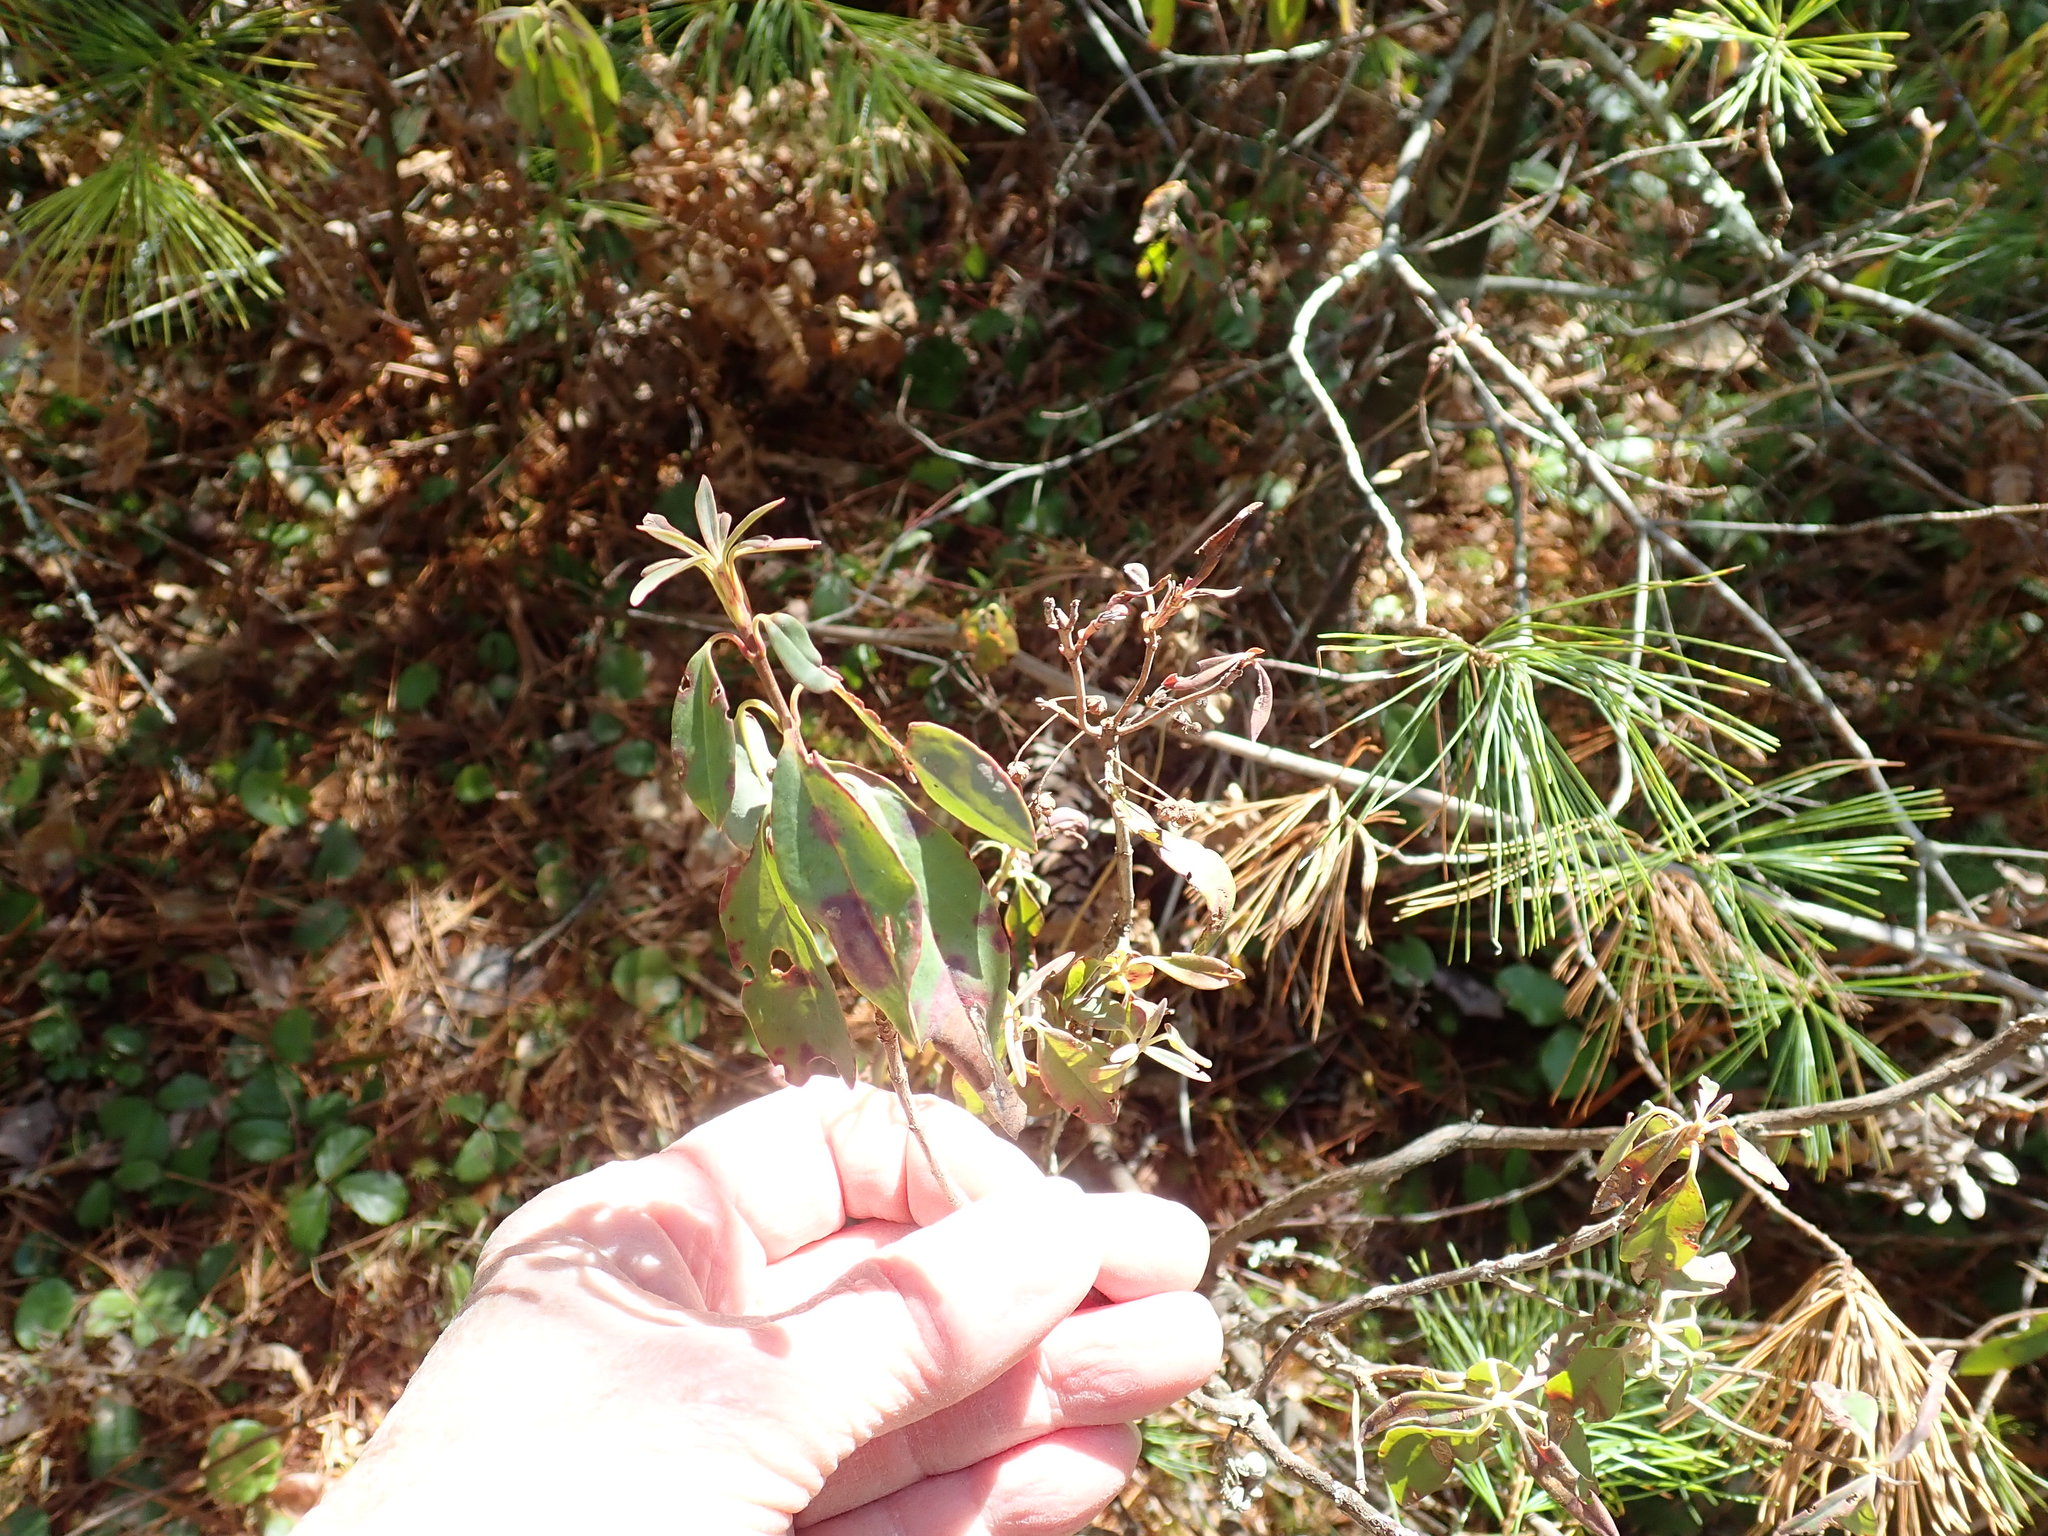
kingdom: Plantae
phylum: Tracheophyta
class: Magnoliopsida
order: Ericales
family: Ericaceae
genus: Kalmia
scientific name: Kalmia angustifolia
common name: Sheep-laurel
